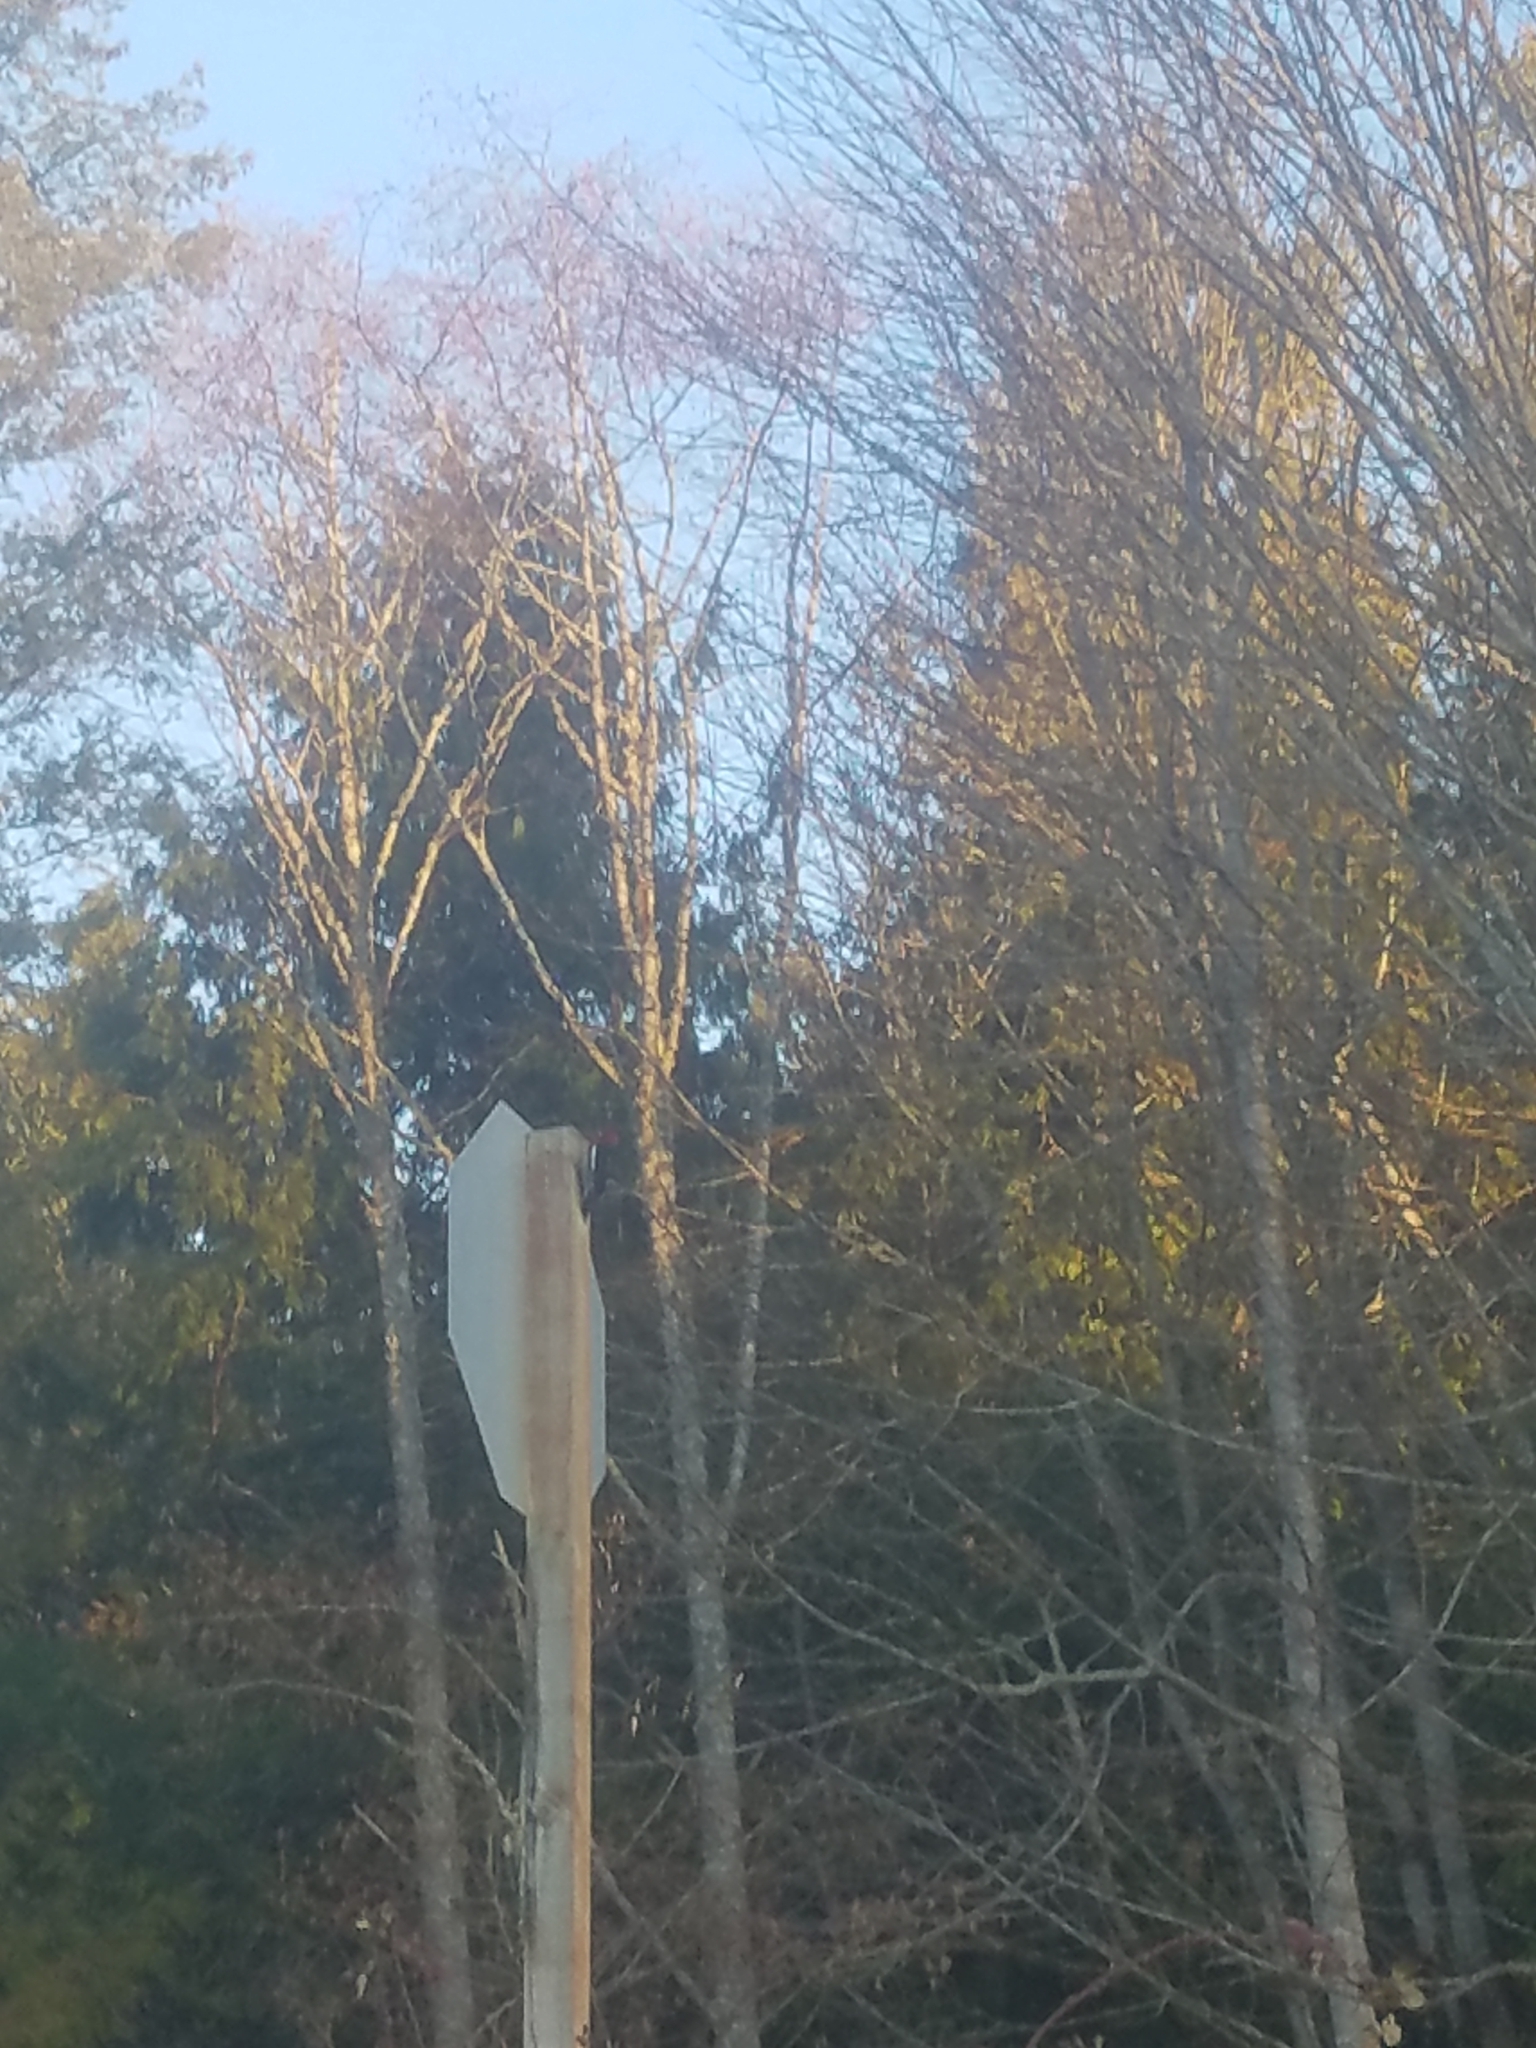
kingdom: Animalia
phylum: Chordata
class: Aves
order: Piciformes
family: Picidae
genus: Sphyrapicus
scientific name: Sphyrapicus ruber
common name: Red-breasted sapsucker
